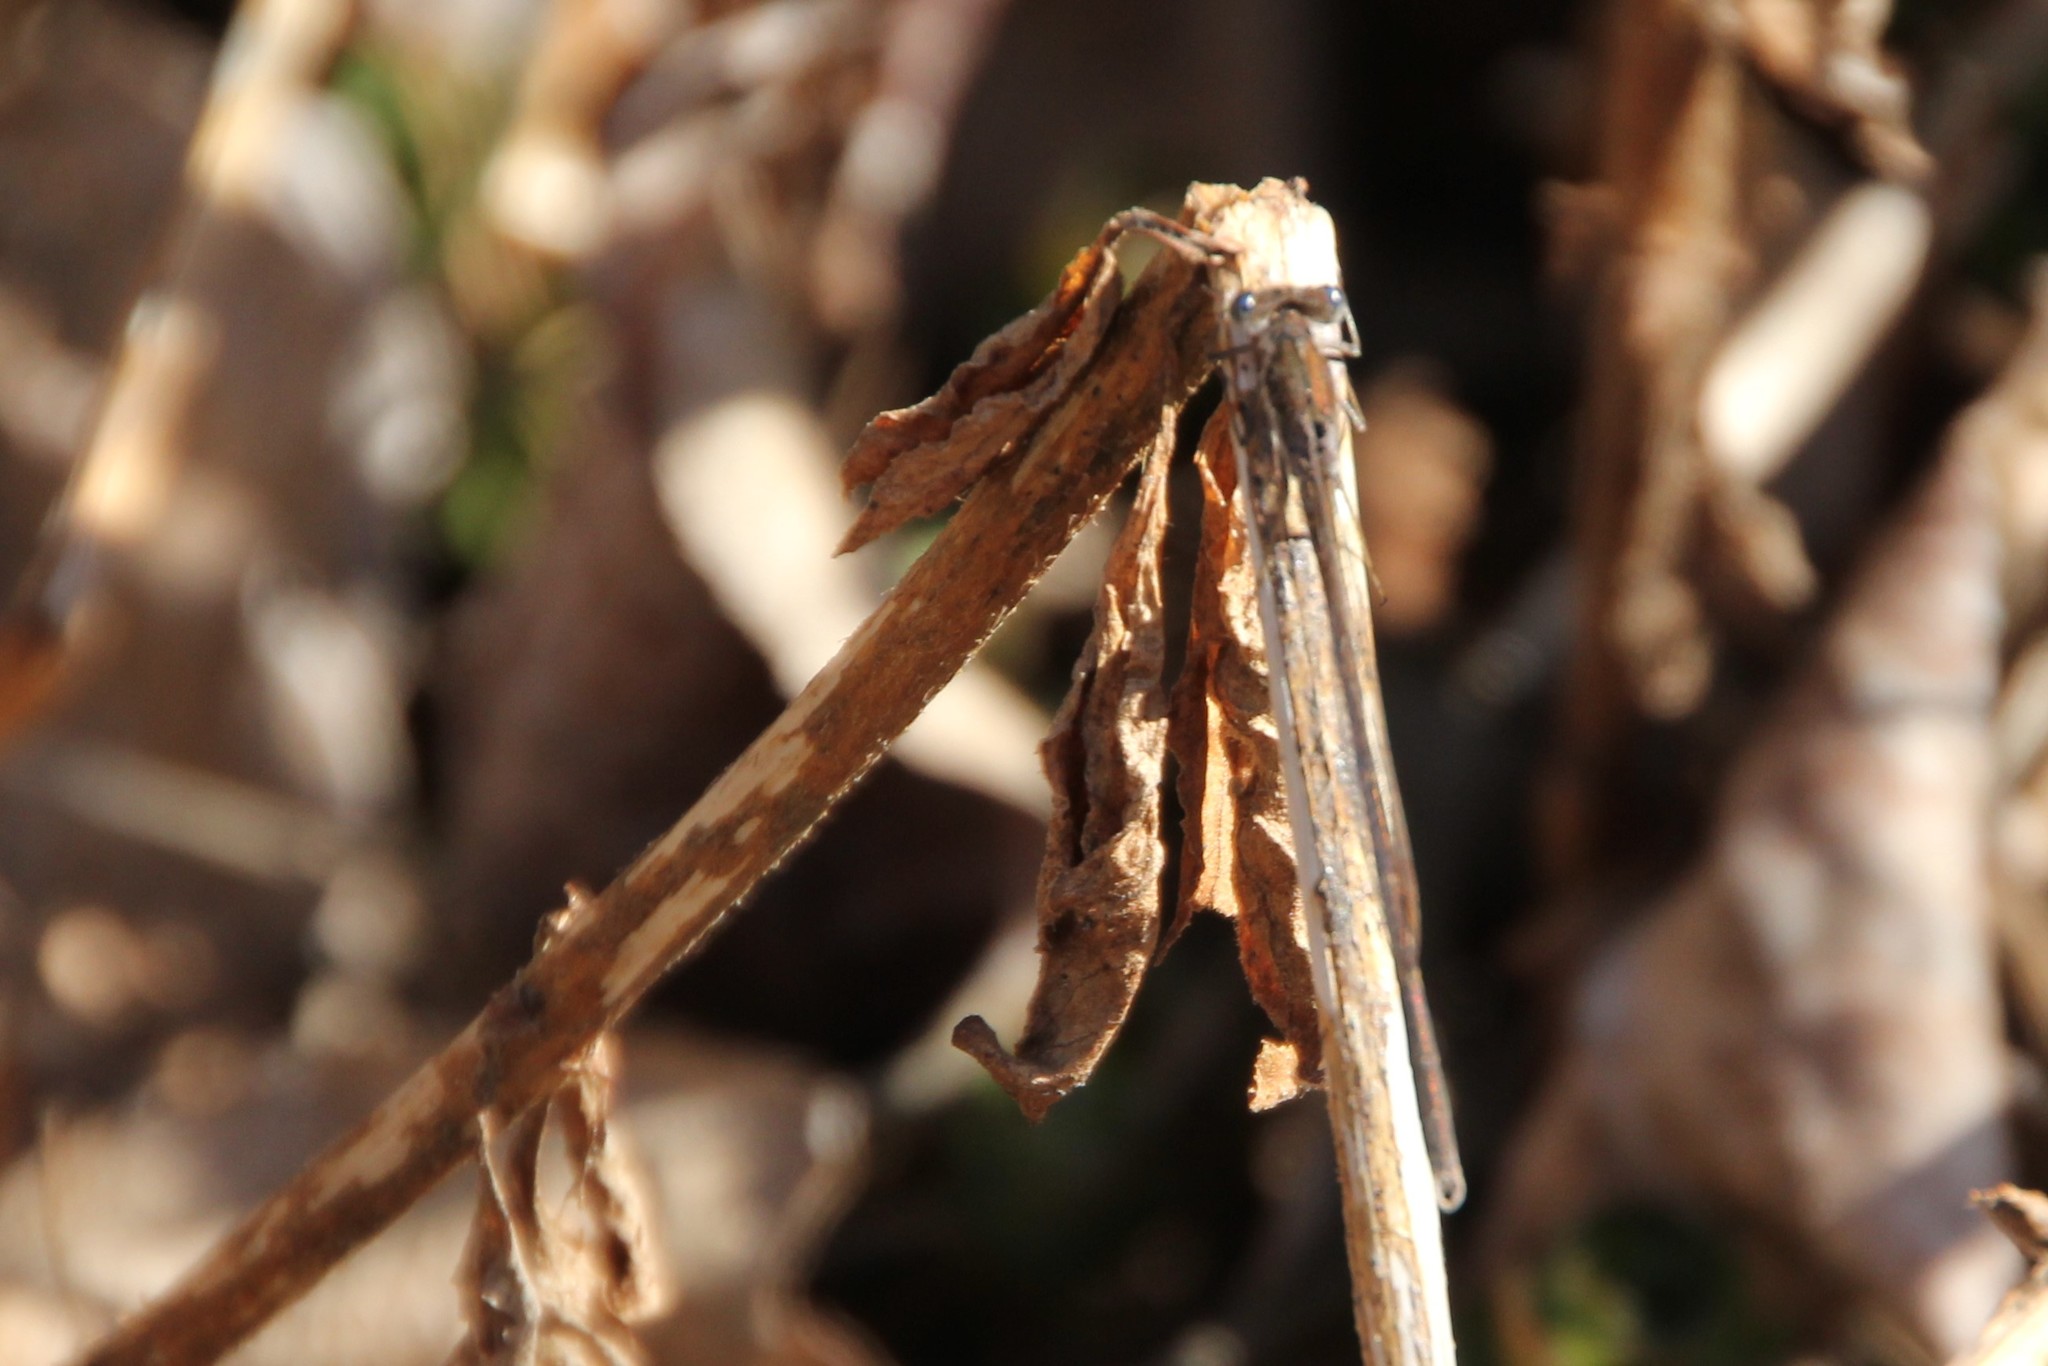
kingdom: Animalia
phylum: Arthropoda
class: Insecta
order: Odonata
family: Lestidae
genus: Sympecma
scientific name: Sympecma fusca
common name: Common winter damsel
